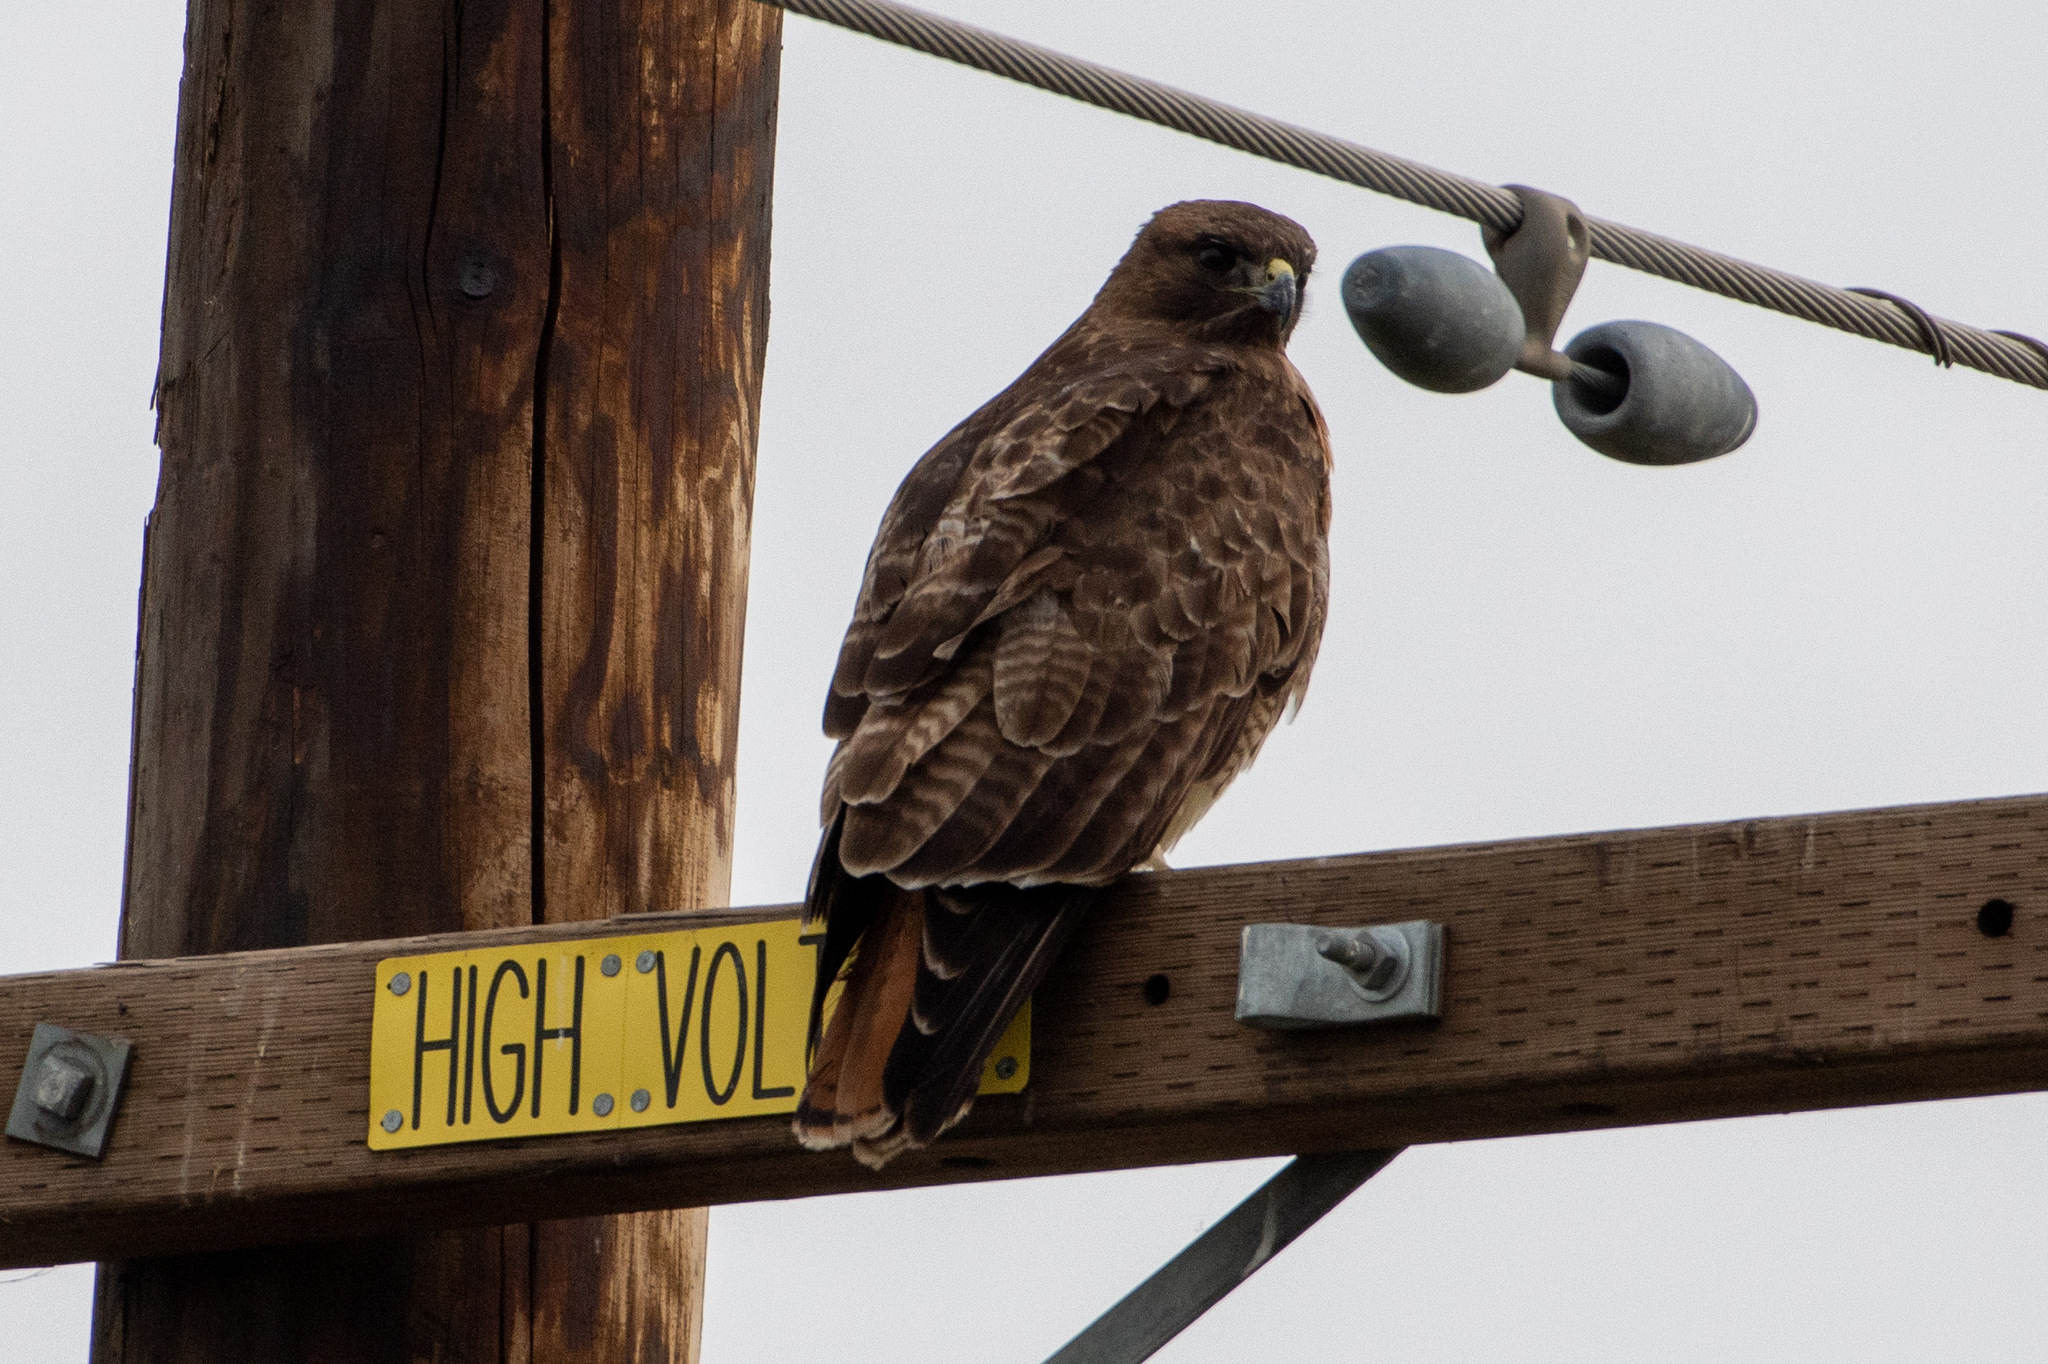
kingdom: Animalia
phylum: Chordata
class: Aves
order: Accipitriformes
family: Accipitridae
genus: Buteo
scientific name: Buteo jamaicensis
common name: Red-tailed hawk
